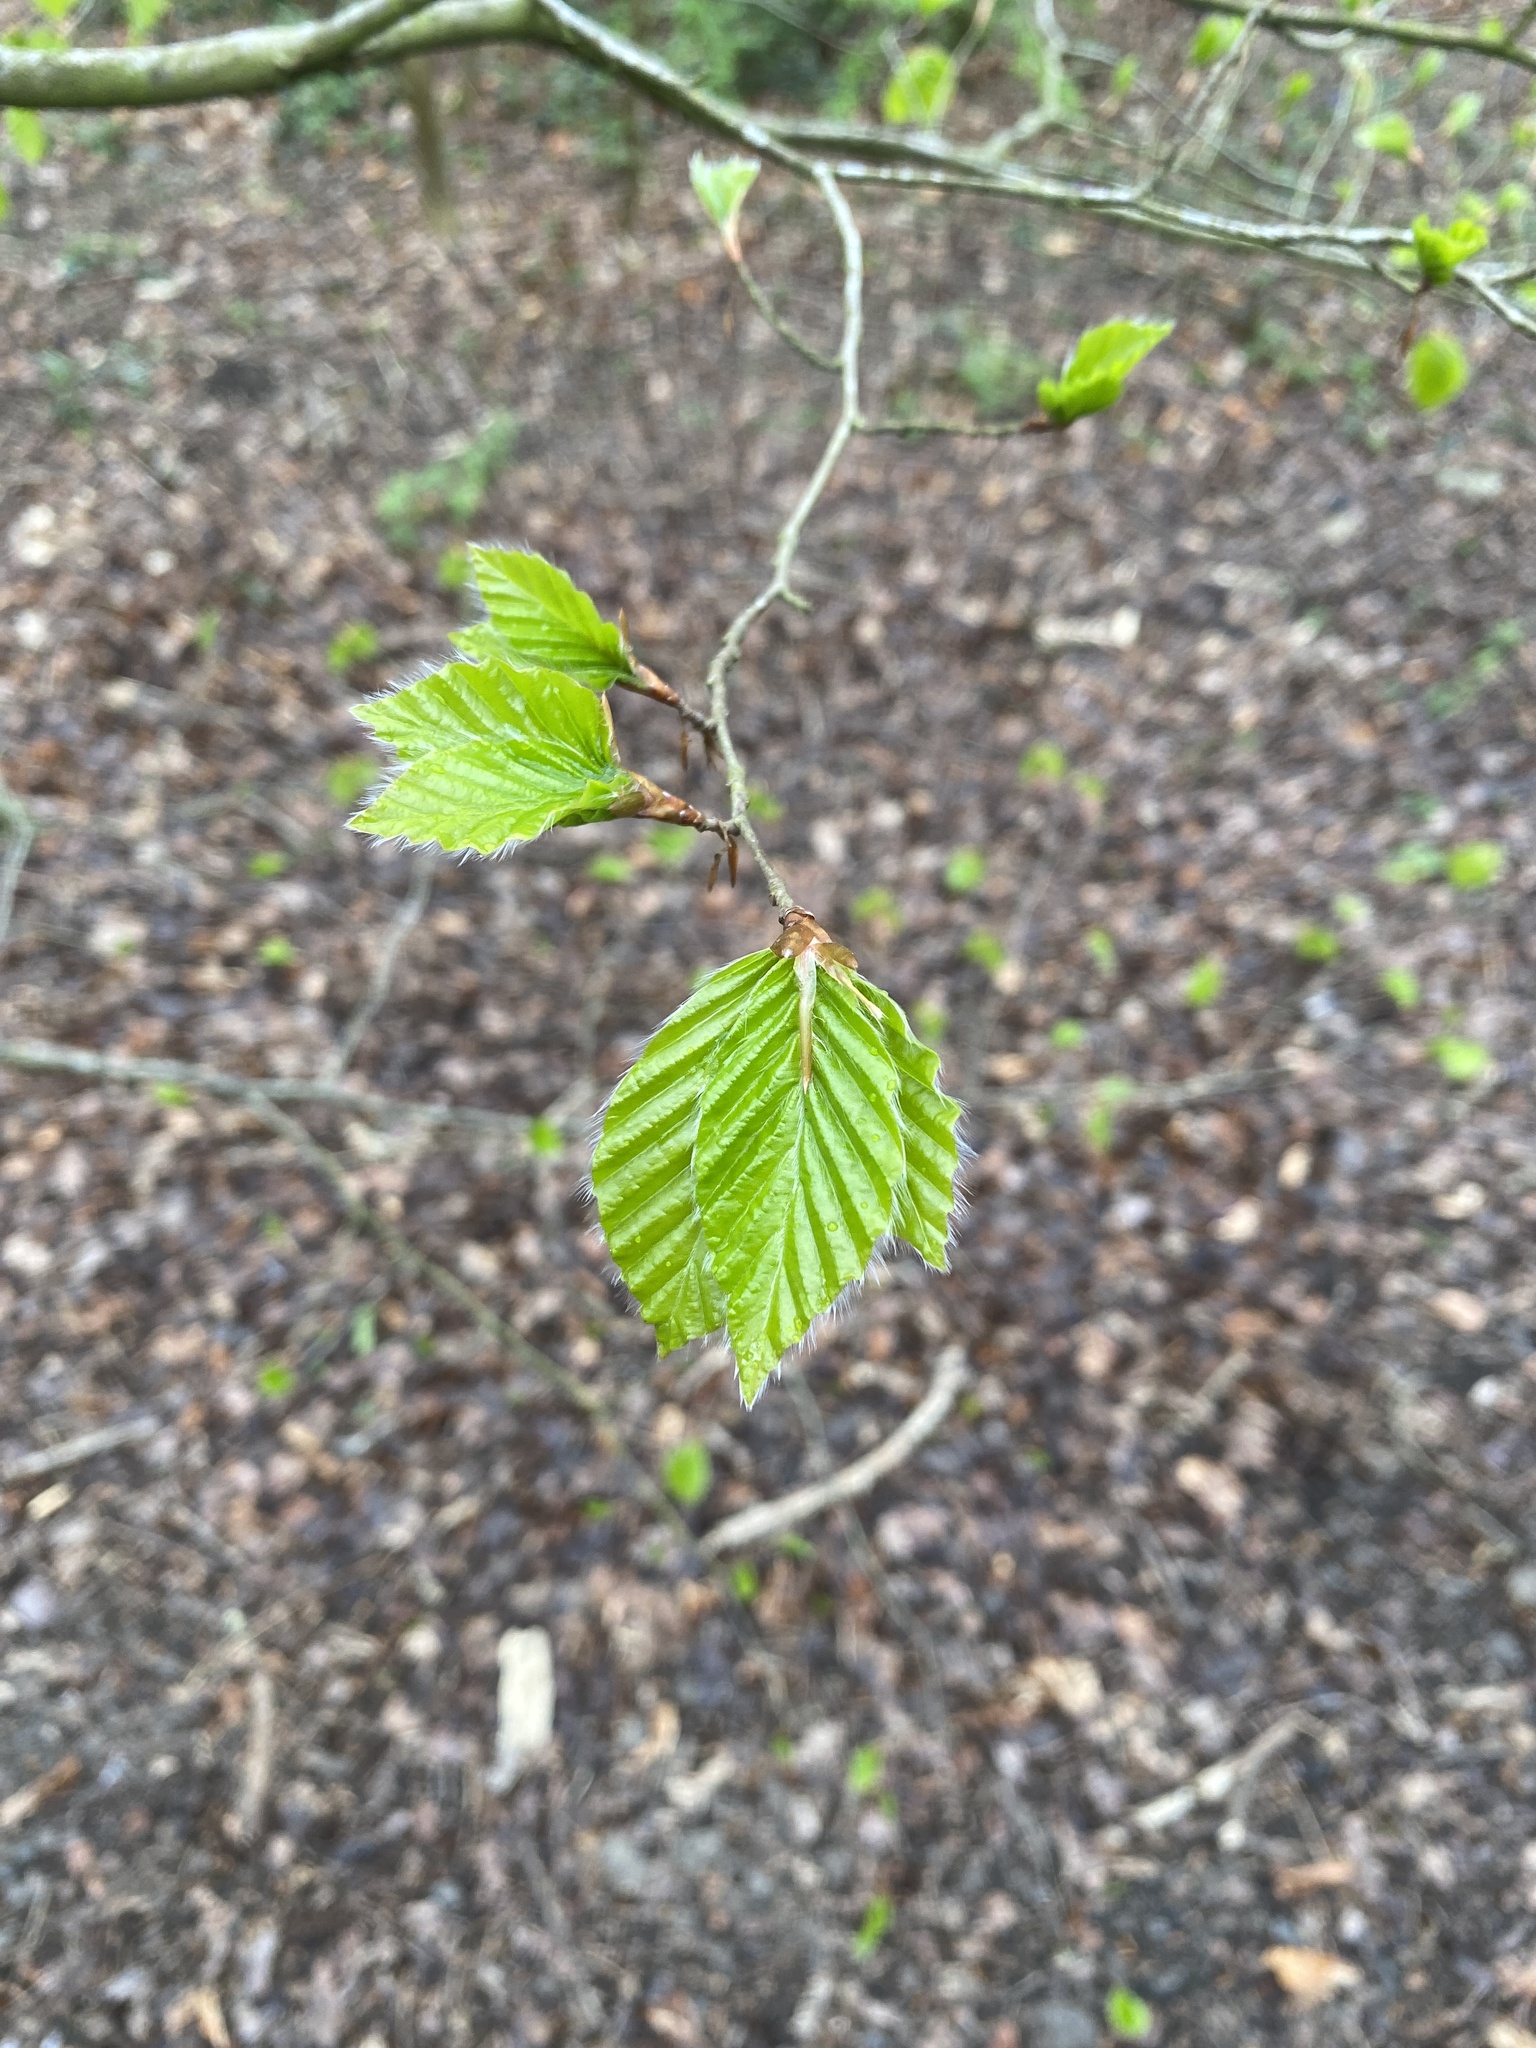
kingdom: Plantae
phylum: Tracheophyta
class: Magnoliopsida
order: Fagales
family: Fagaceae
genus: Fagus
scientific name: Fagus sylvatica
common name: Beech
